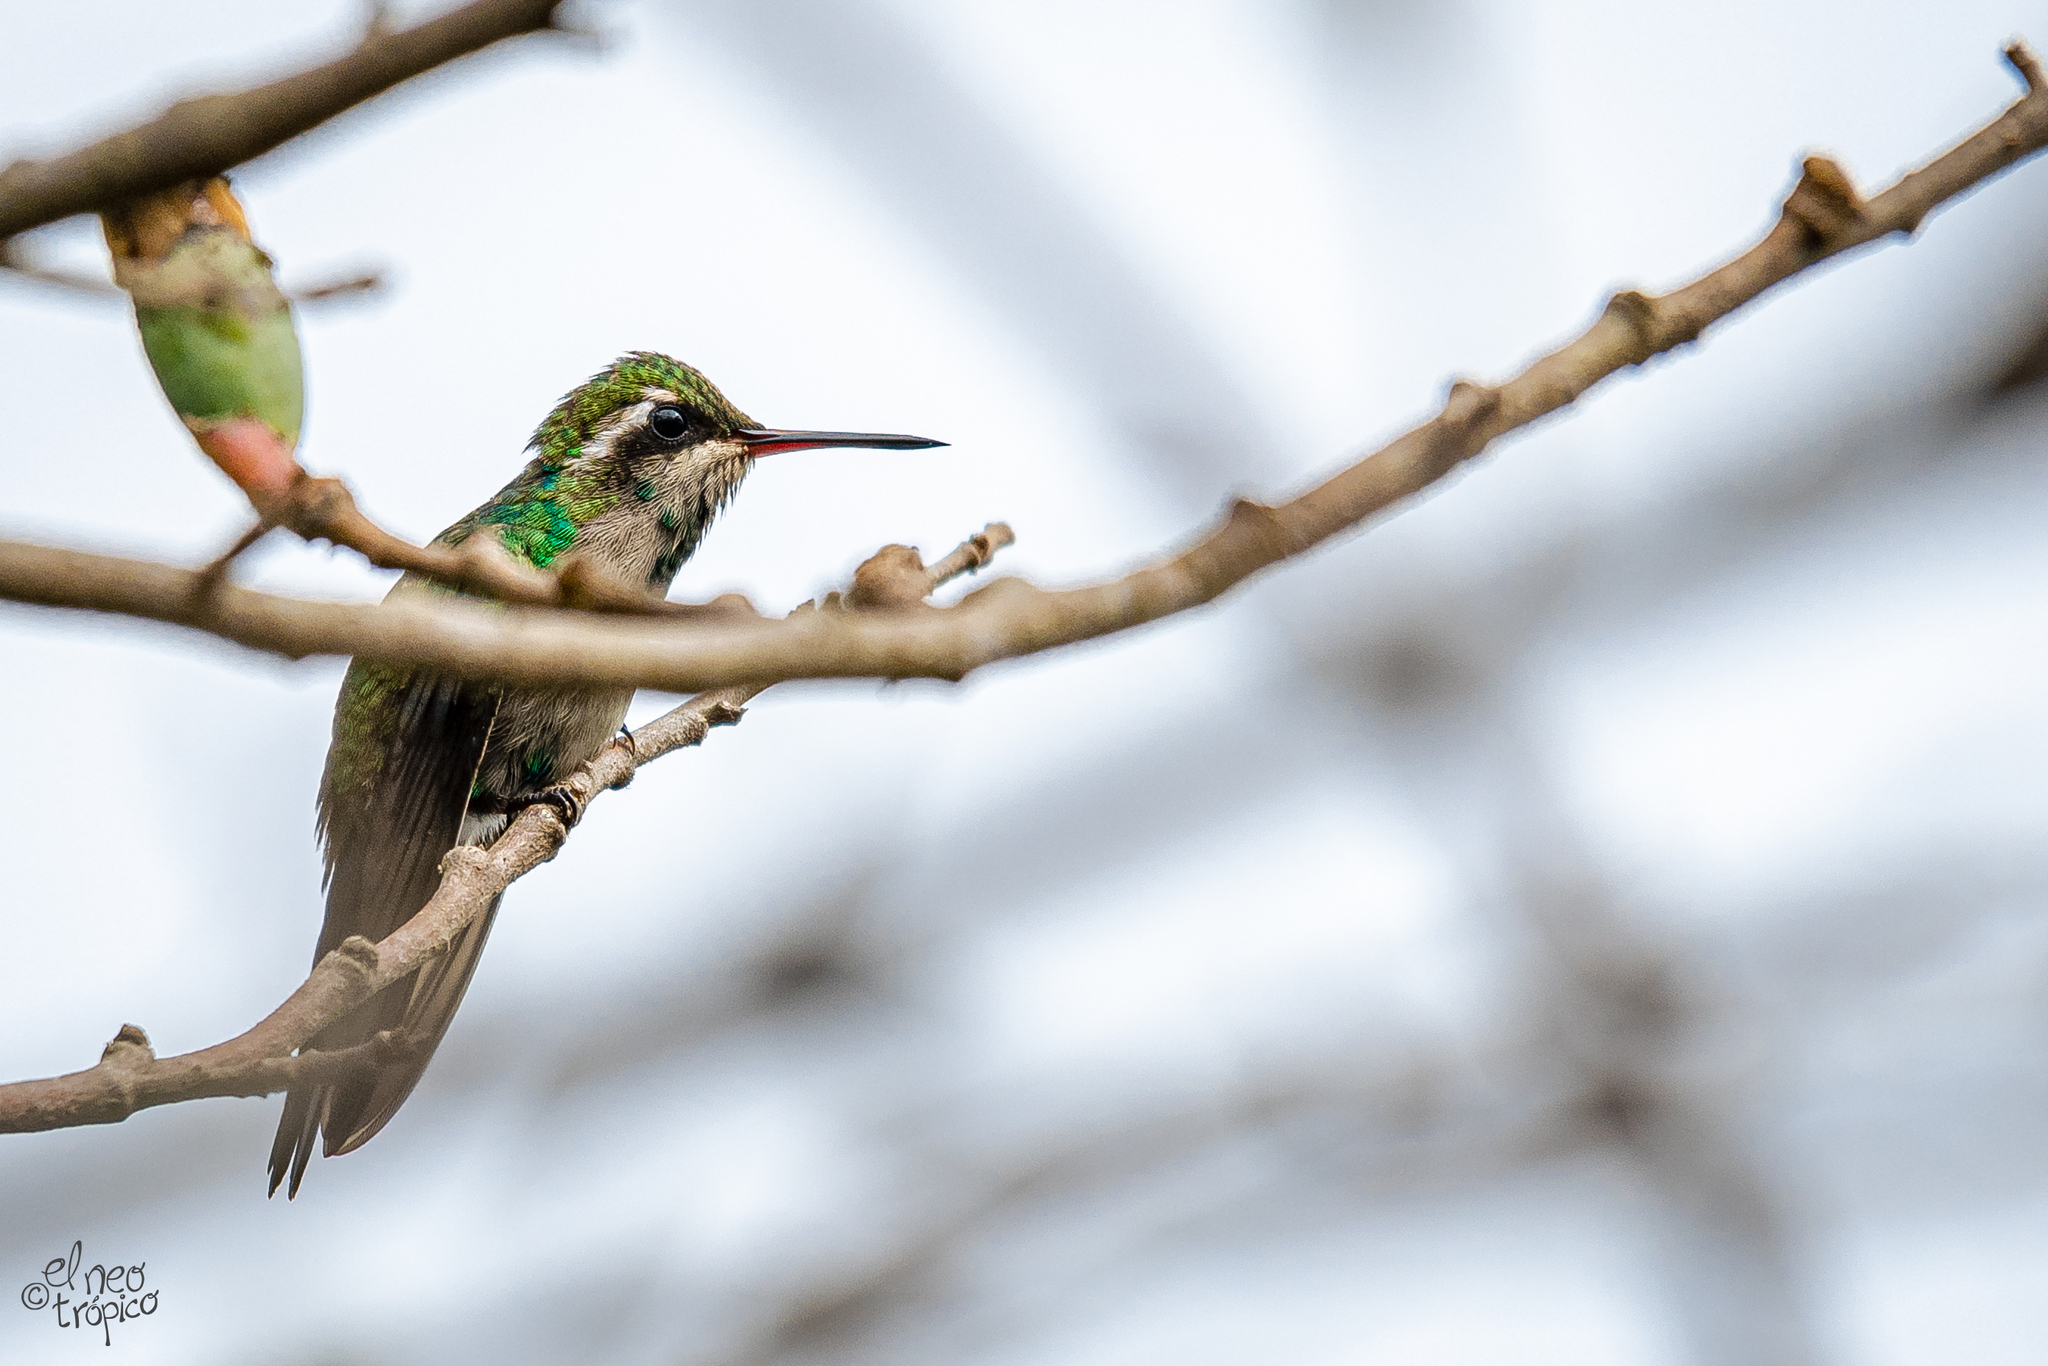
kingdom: Animalia
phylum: Chordata
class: Aves
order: Apodiformes
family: Trochilidae
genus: Cynanthus
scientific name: Cynanthus canivetii
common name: Canivet's emerald
